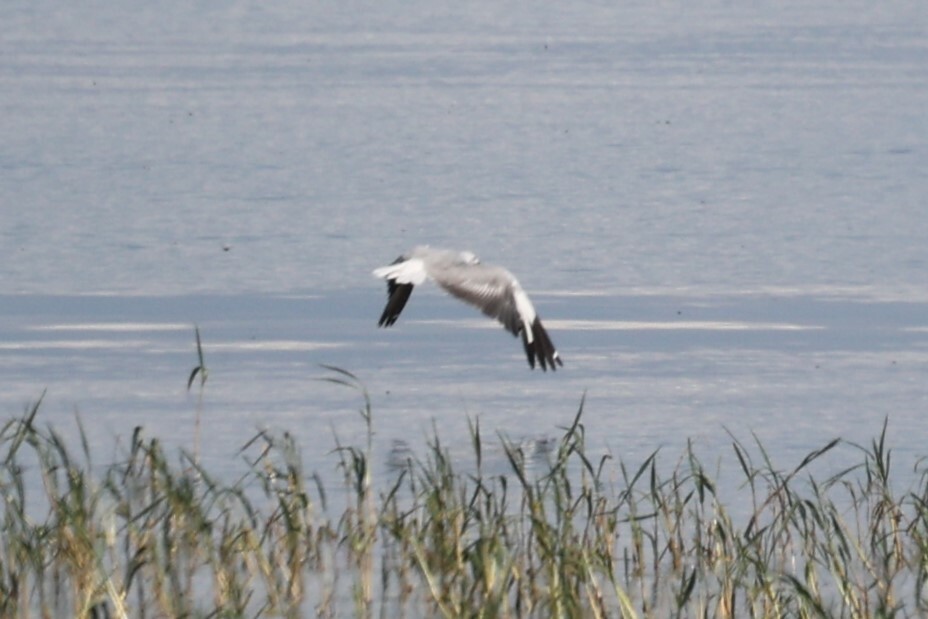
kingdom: Animalia
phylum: Chordata
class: Aves
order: Charadriiformes
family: Laridae
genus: Chroicocephalus
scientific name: Chroicocephalus cirrocephalus
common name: Grey-headed gull
